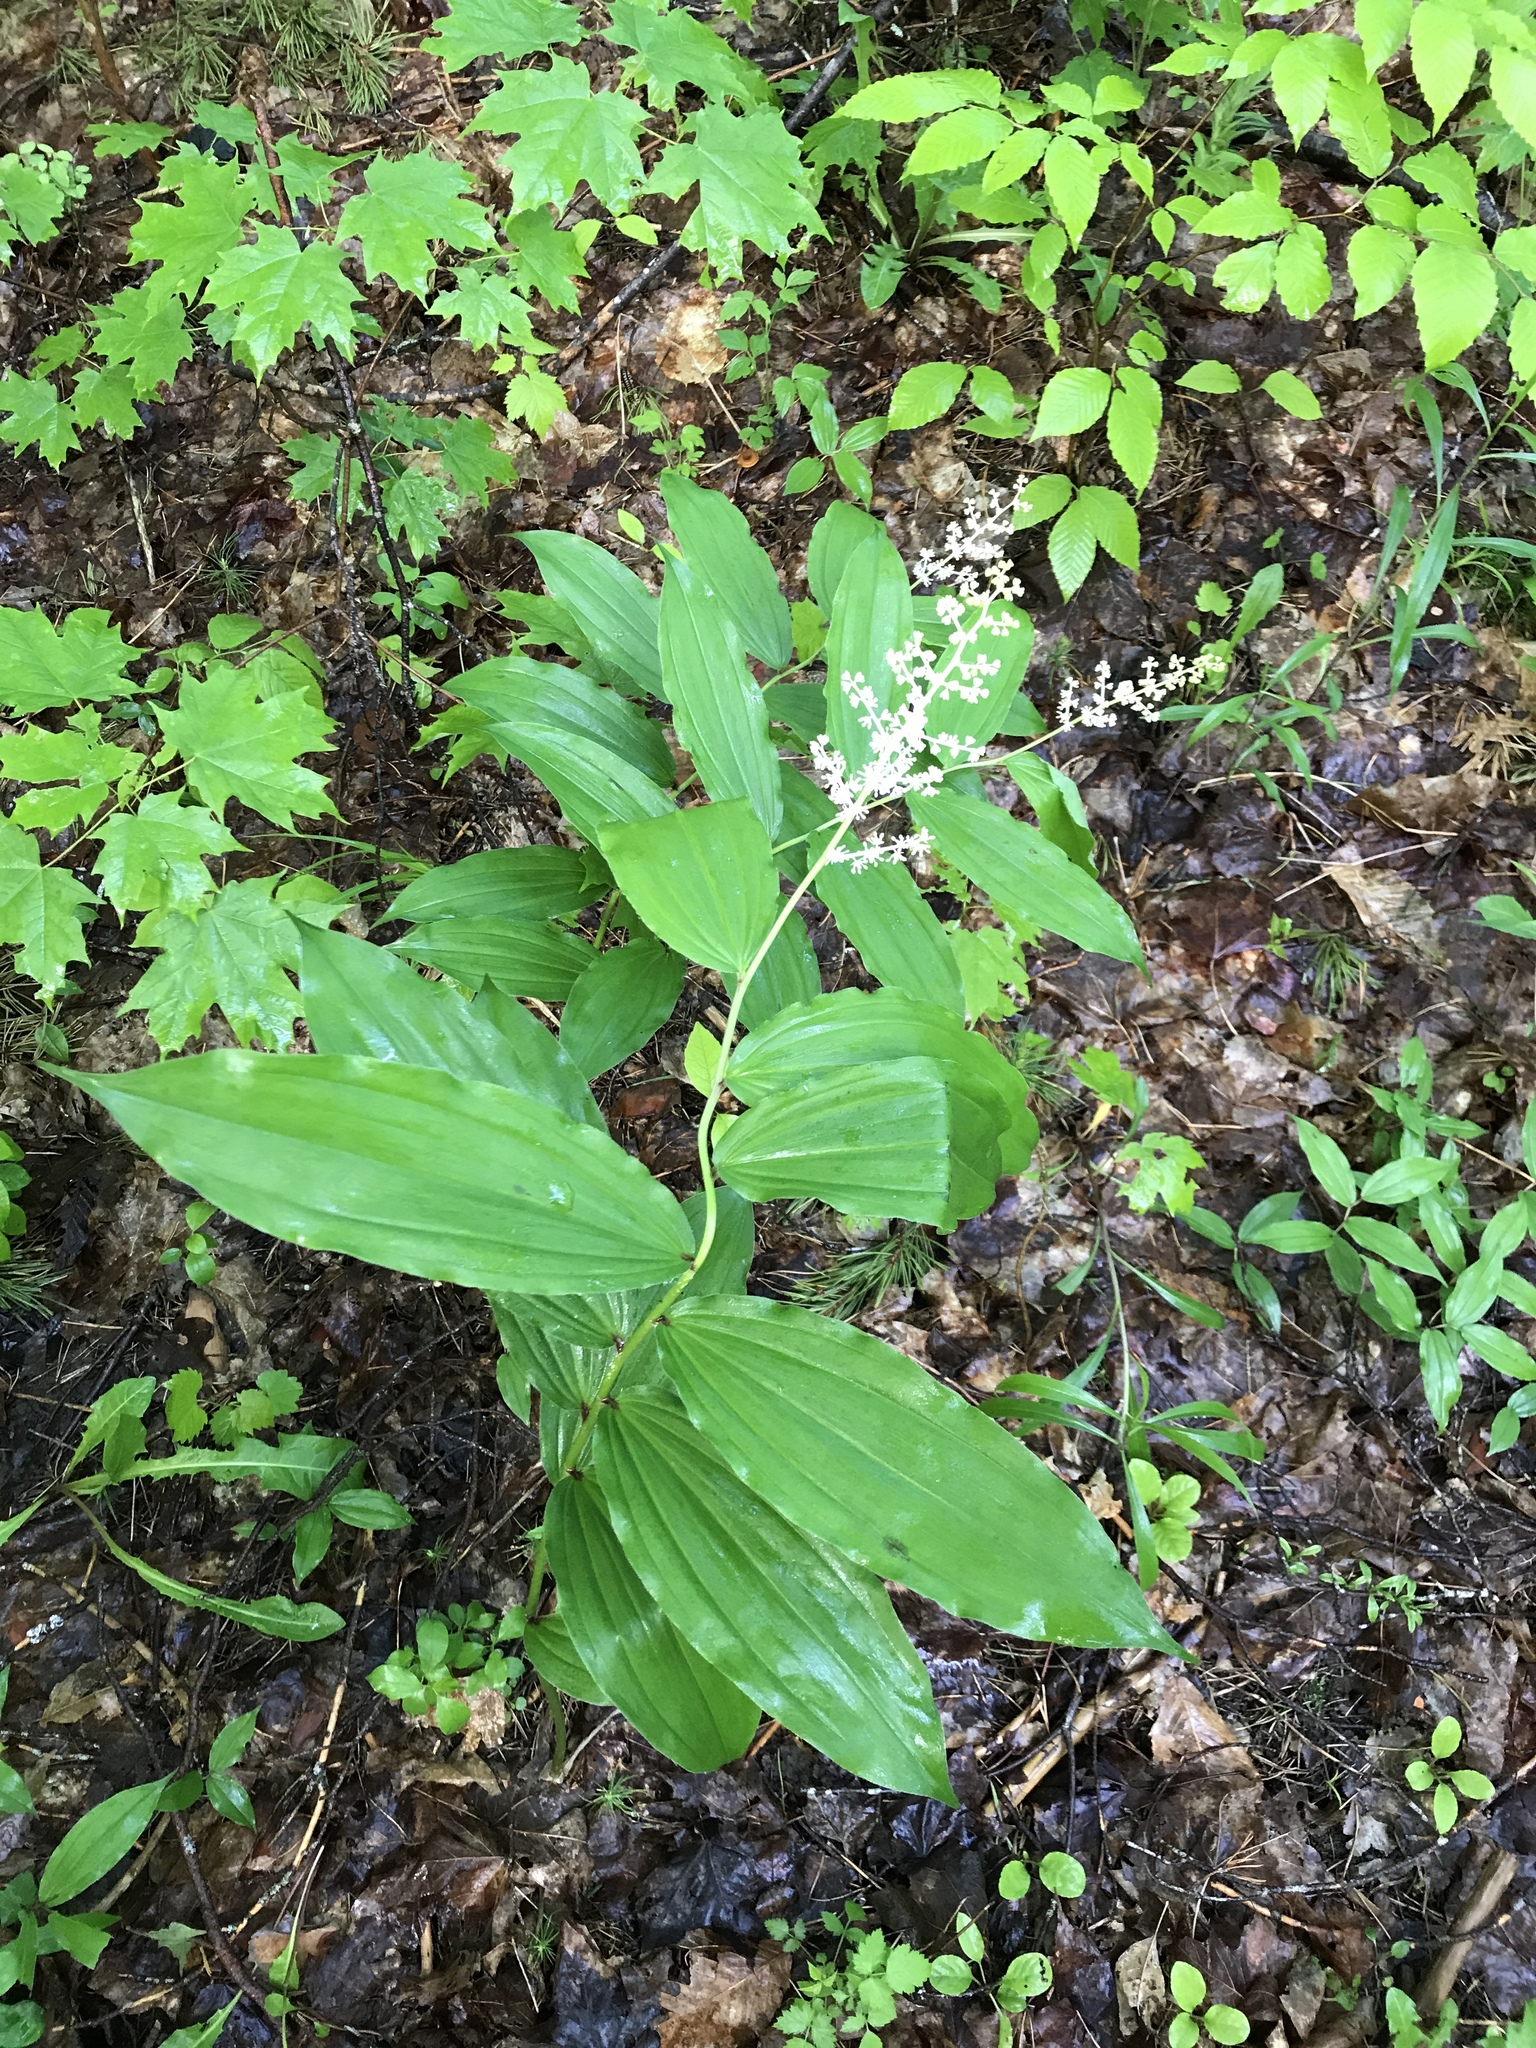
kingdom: Plantae
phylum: Tracheophyta
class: Liliopsida
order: Asparagales
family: Asparagaceae
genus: Maianthemum
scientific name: Maianthemum racemosum
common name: False spikenard
